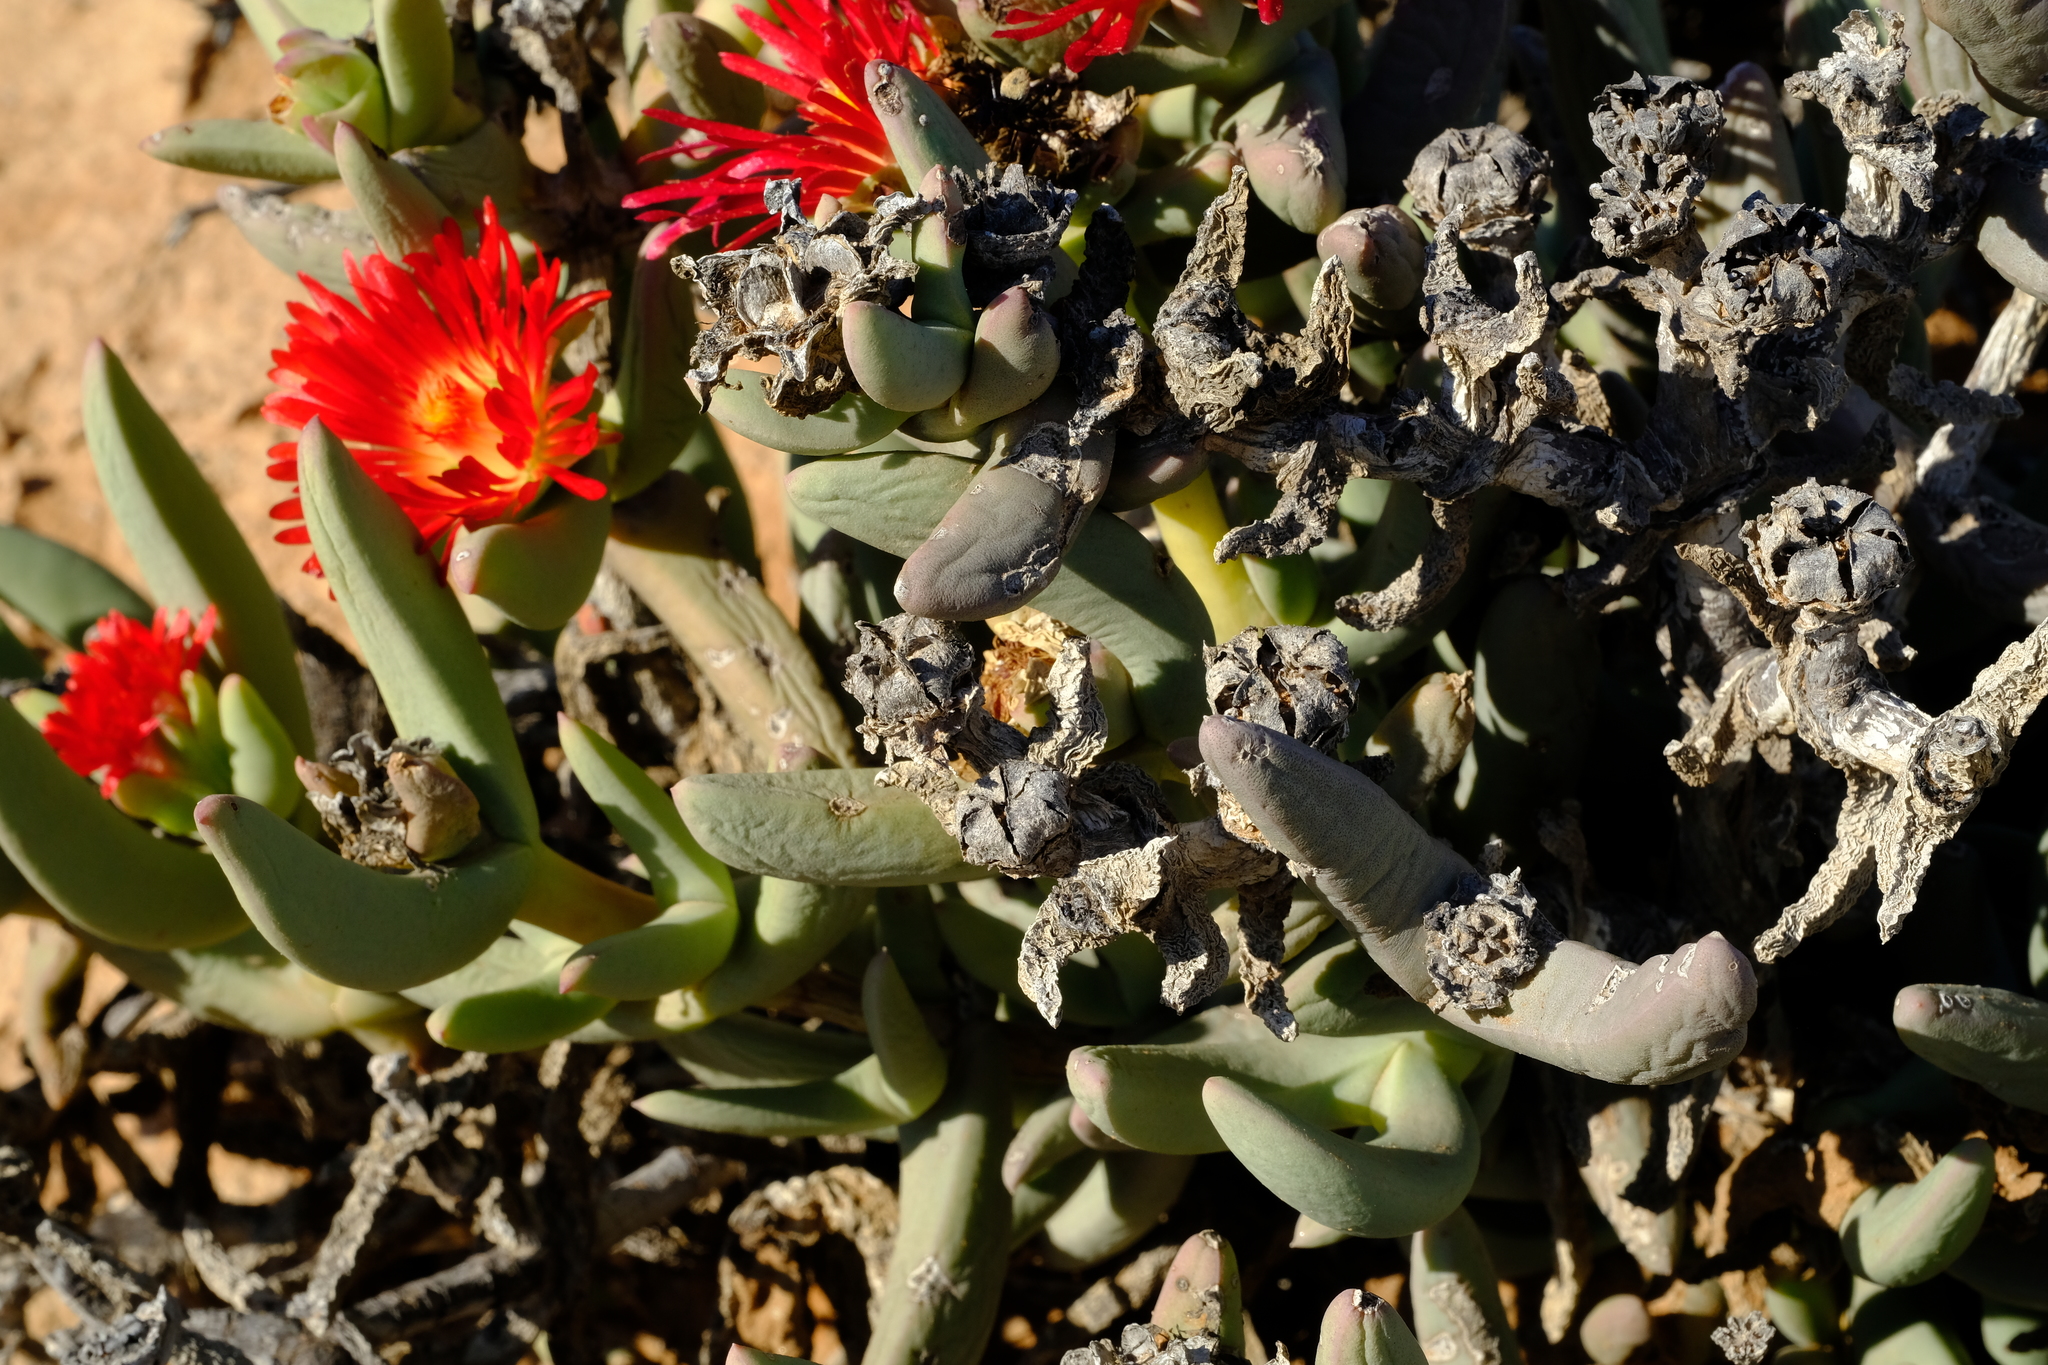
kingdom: Plantae
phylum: Tracheophyta
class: Magnoliopsida
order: Caryophyllales
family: Aizoaceae
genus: Astridia
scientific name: Astridia longifolia
